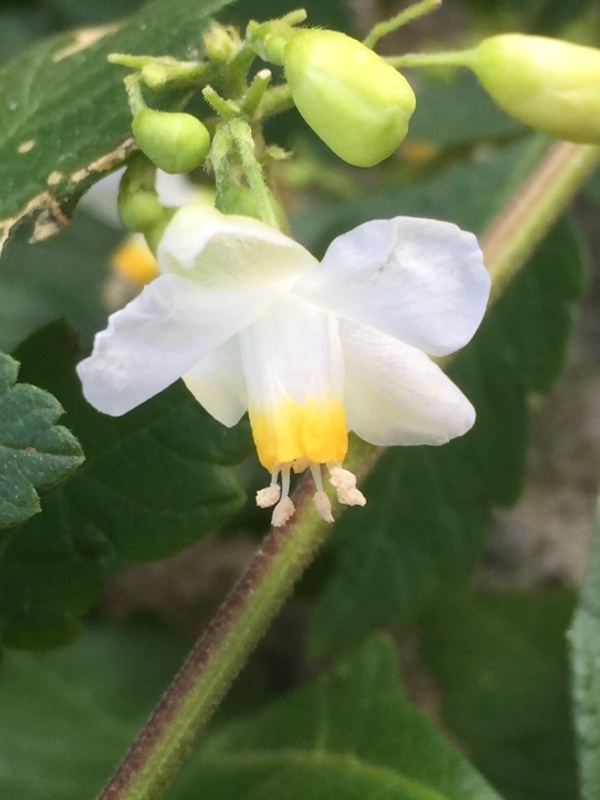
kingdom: Plantae
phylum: Tracheophyta
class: Magnoliopsida
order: Sapindales
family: Sapindaceae
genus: Cardiospermum
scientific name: Cardiospermum grandiflorum
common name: Balloon vine
